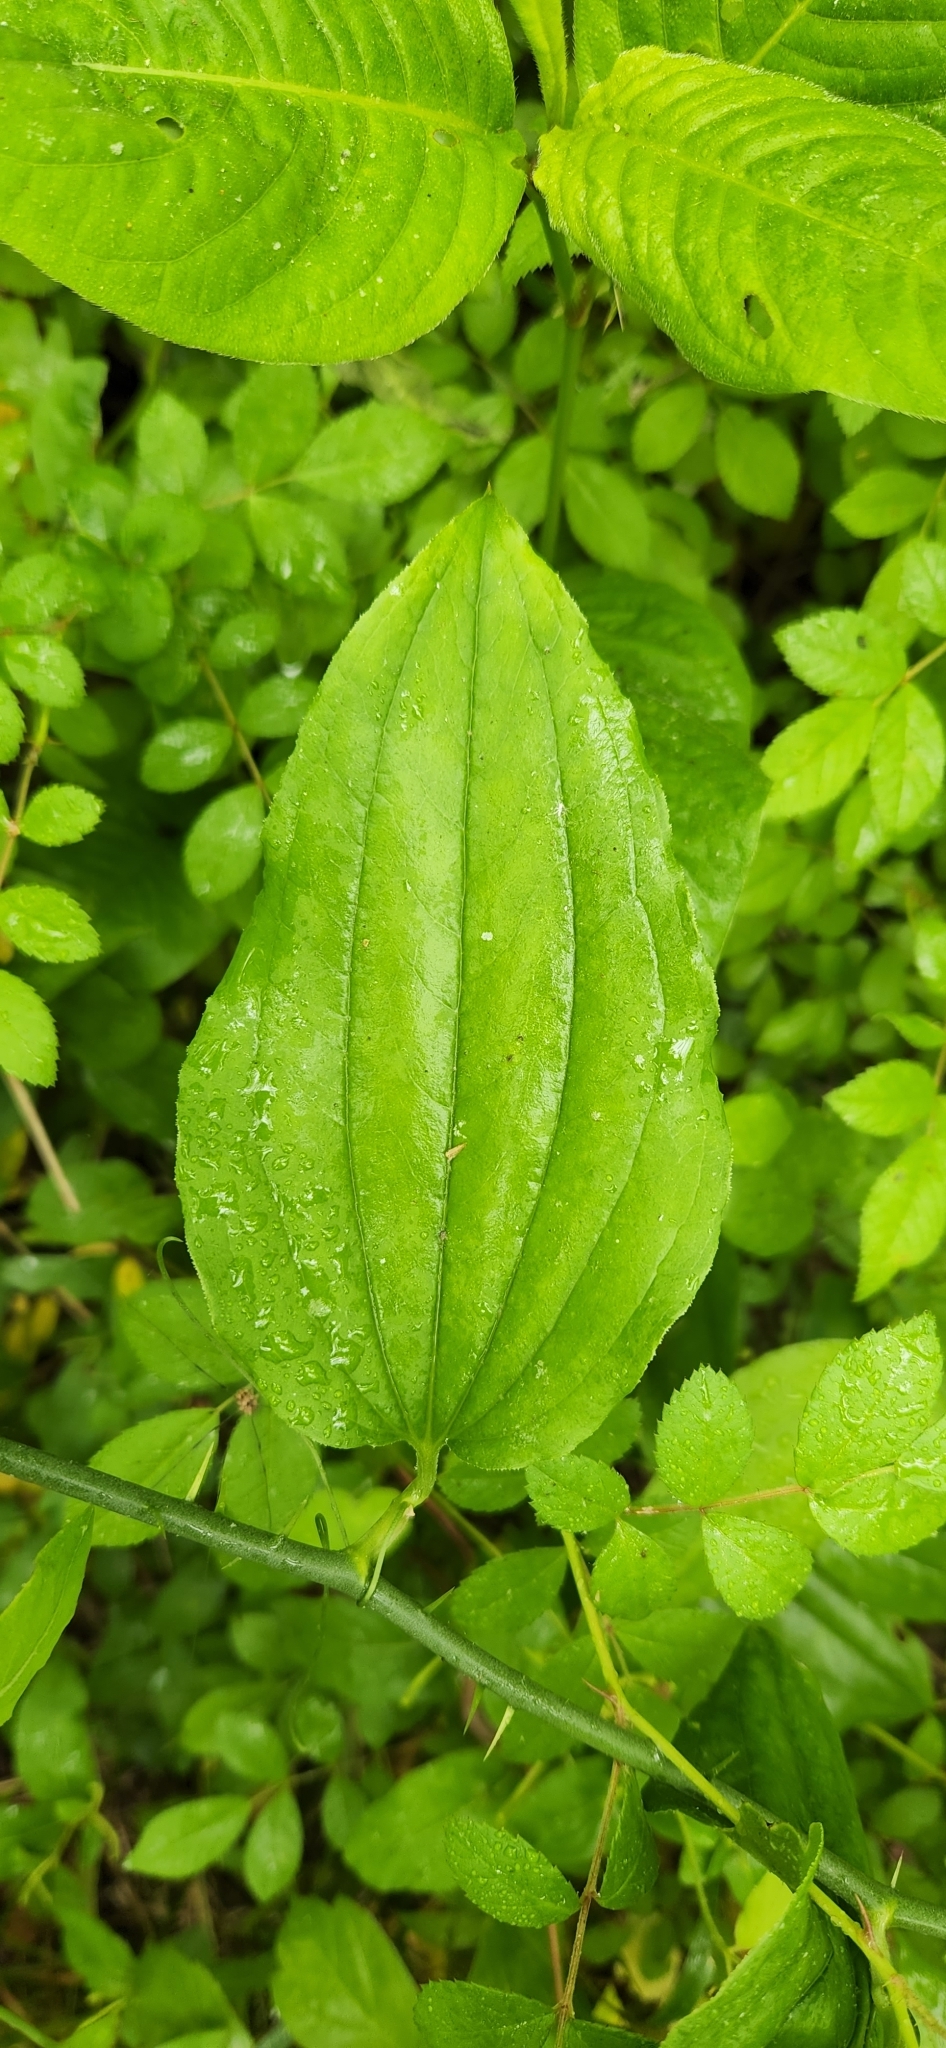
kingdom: Plantae
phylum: Tracheophyta
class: Liliopsida
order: Liliales
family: Smilacaceae
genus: Smilax
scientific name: Smilax tamnoides
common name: Hellfetter
